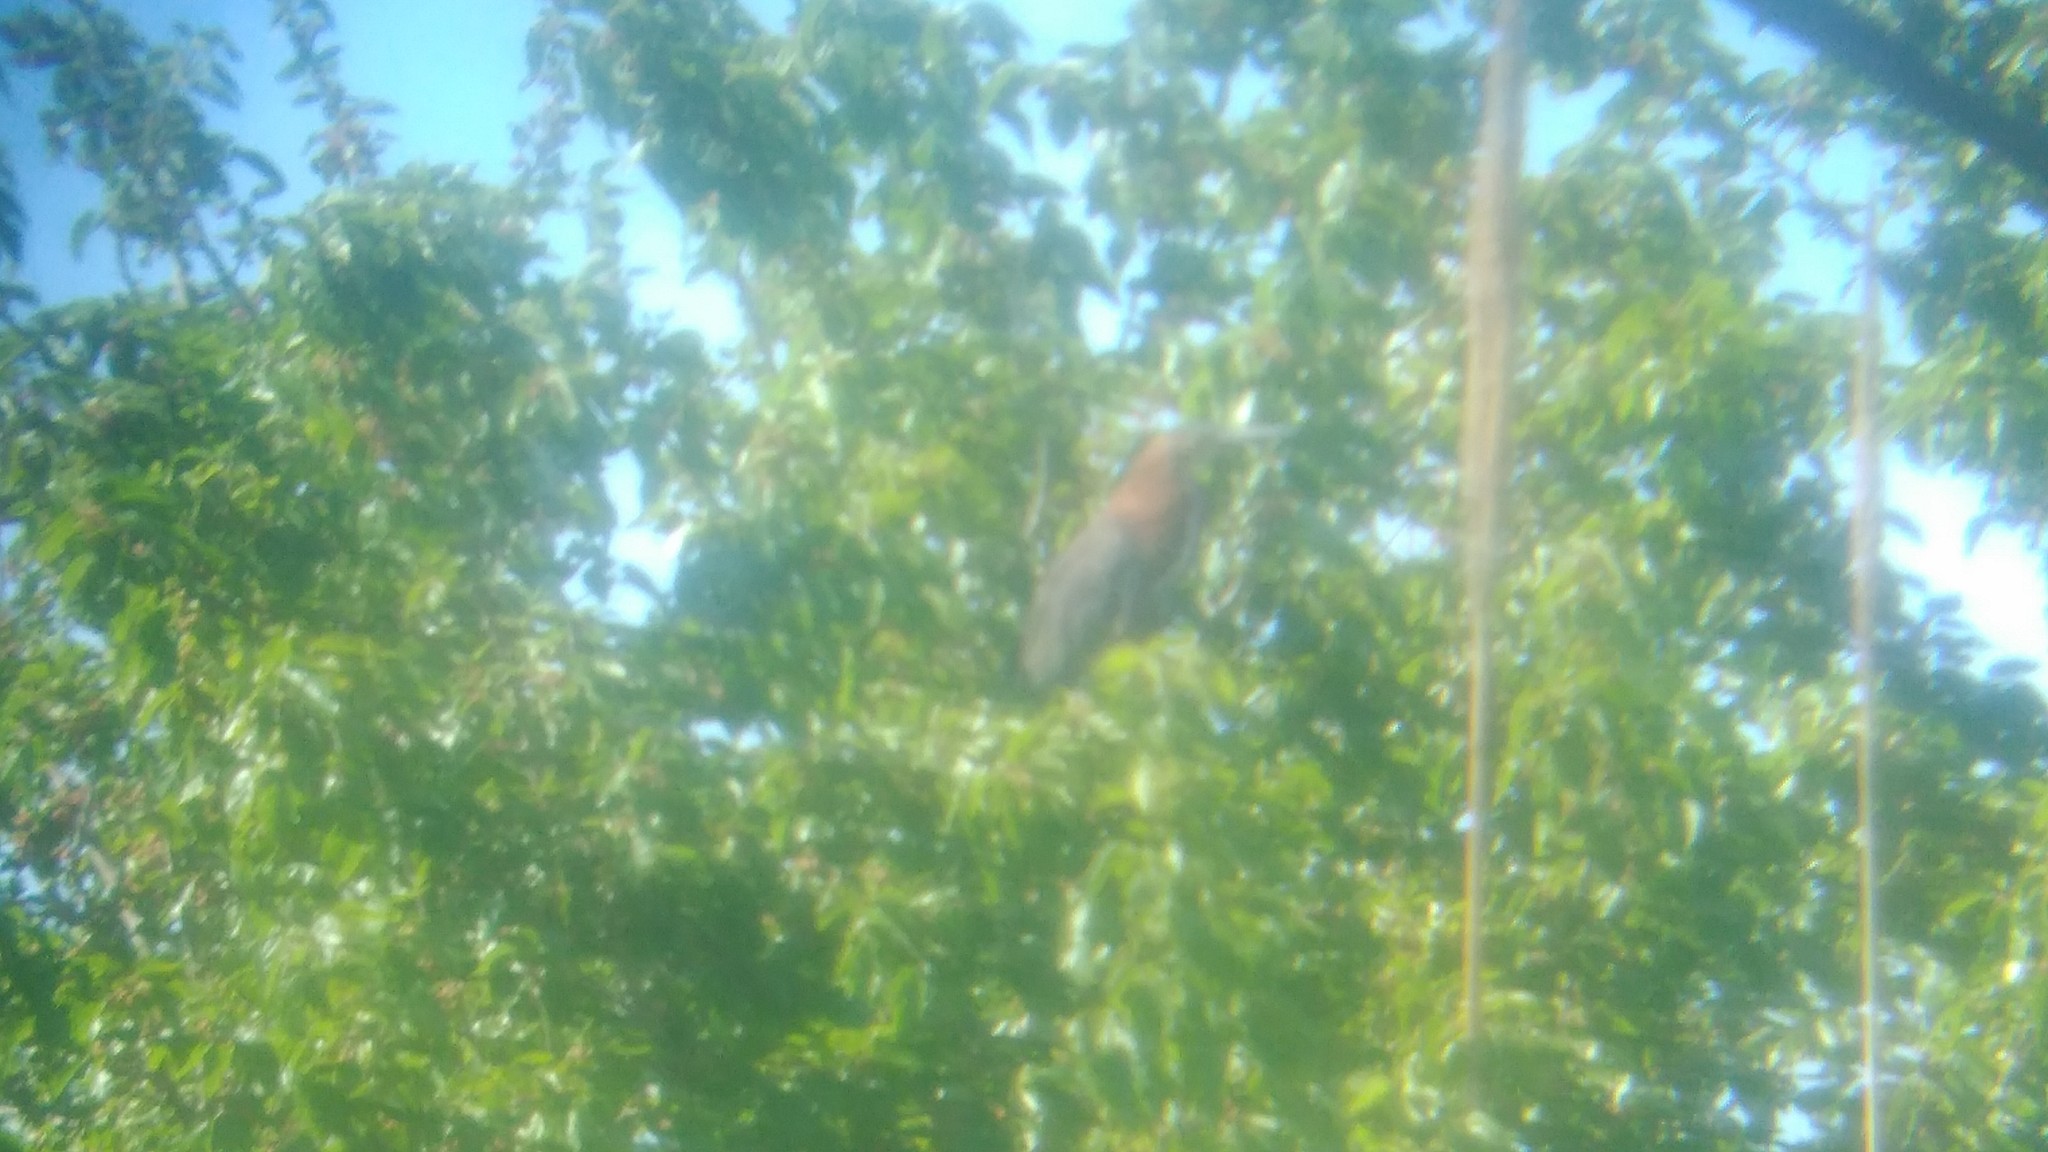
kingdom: Animalia
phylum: Chordata
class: Aves
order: Pelecaniformes
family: Ardeidae
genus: Tigrisoma
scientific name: Tigrisoma lineatum
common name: Rufescent tiger-heron
